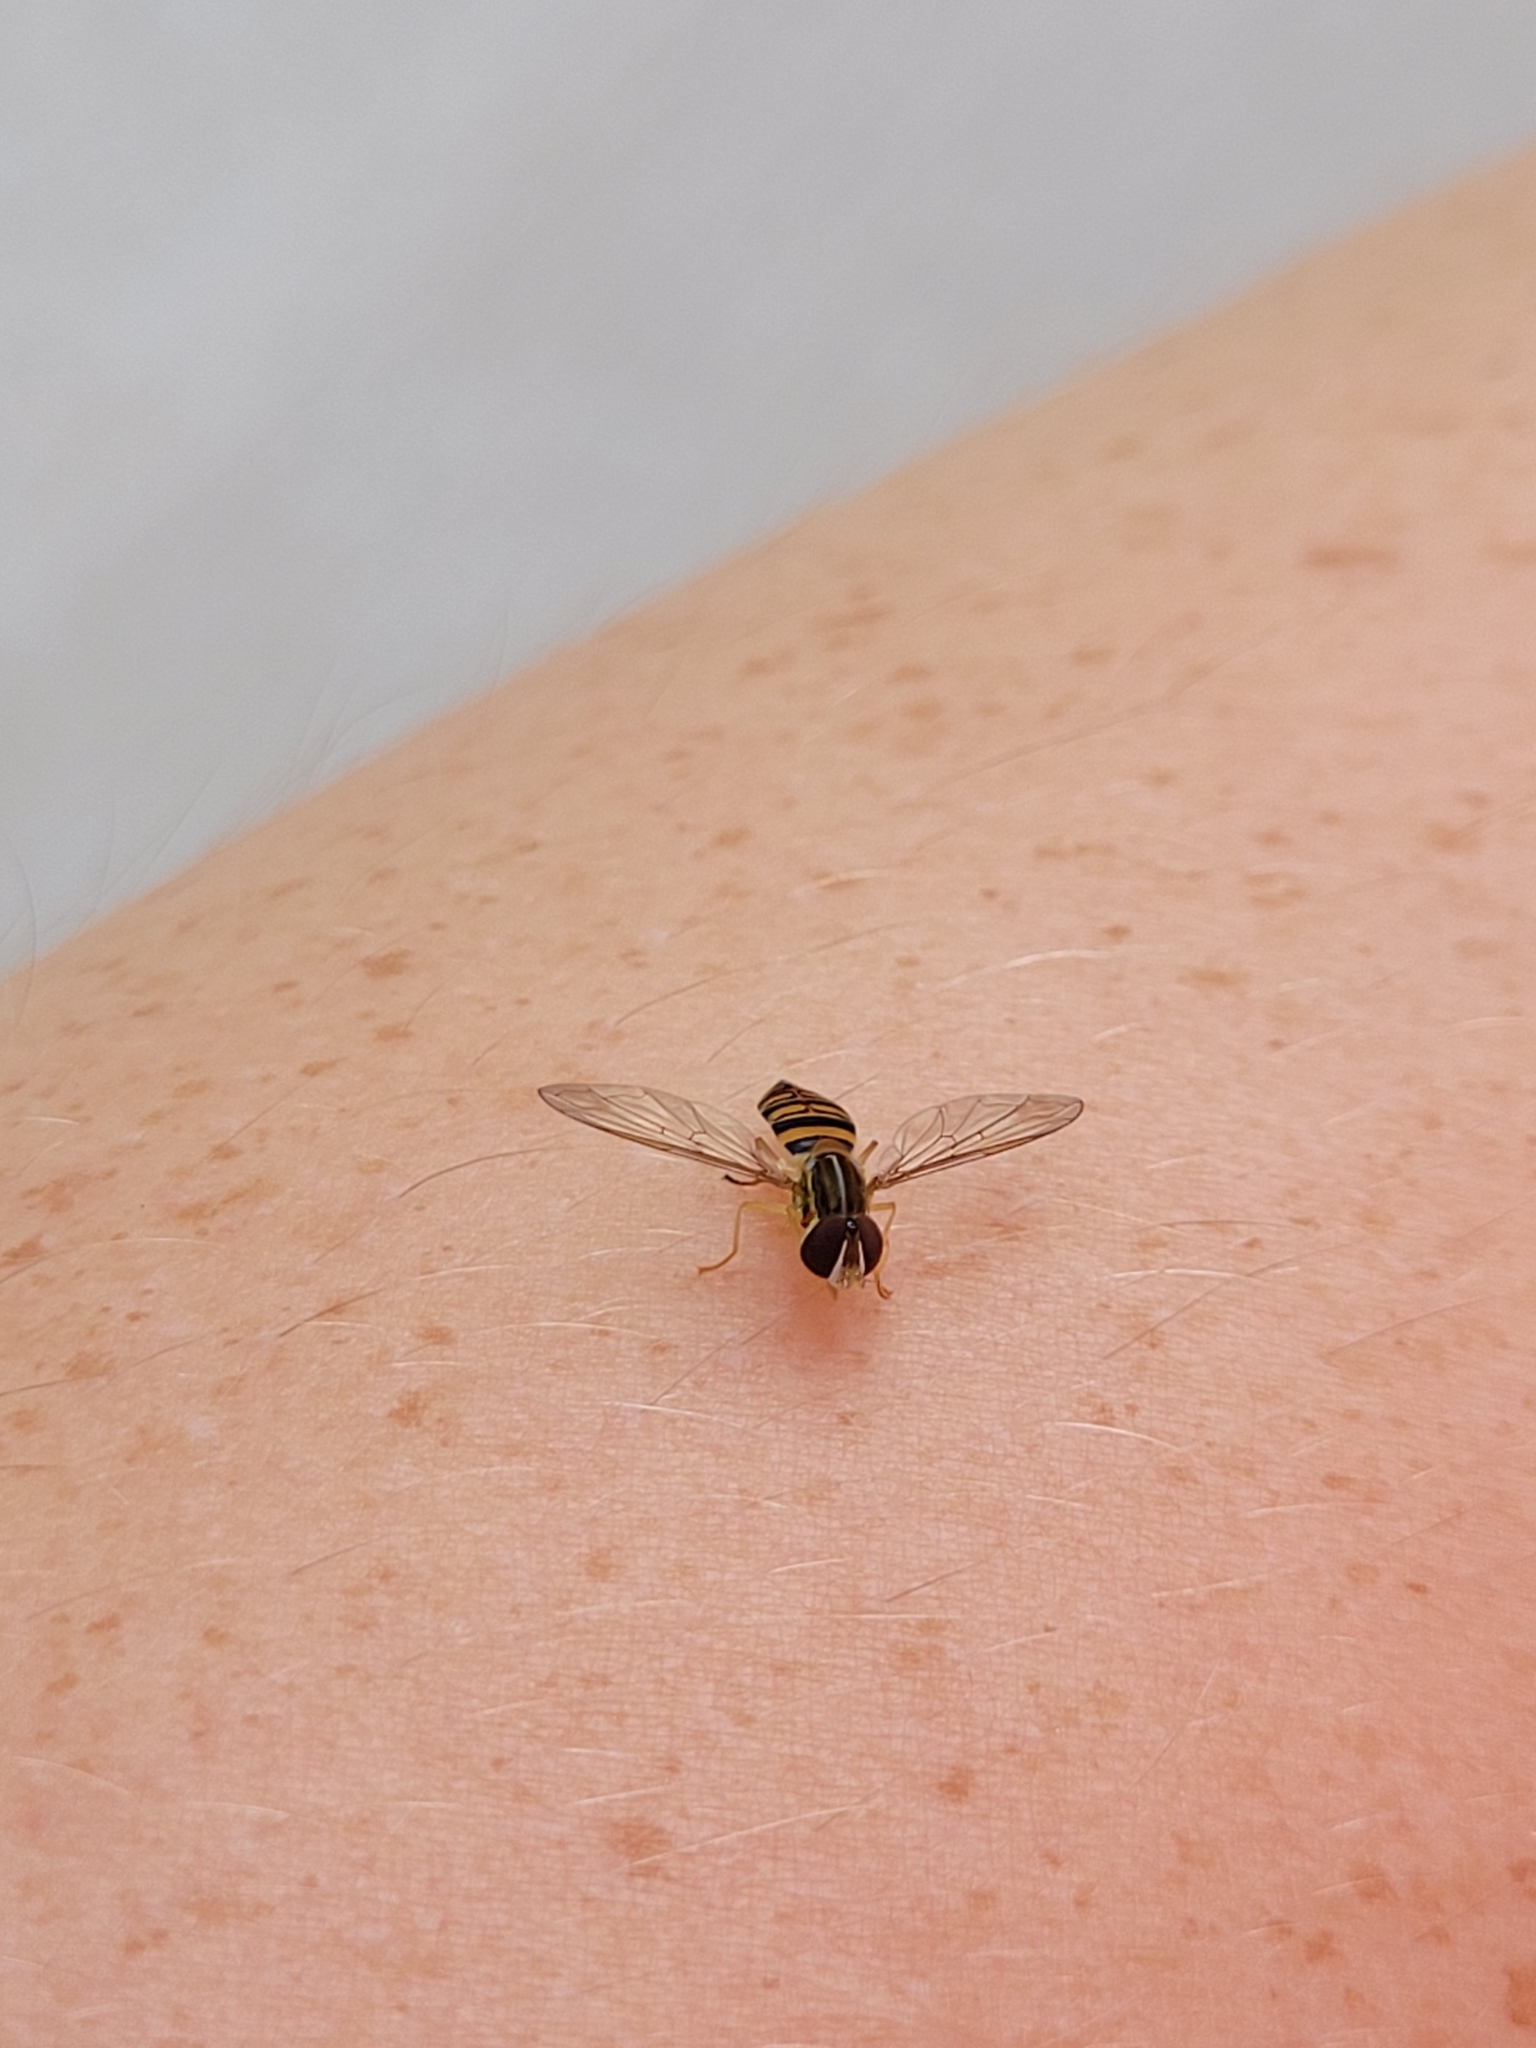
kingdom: Animalia
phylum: Arthropoda
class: Insecta
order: Diptera
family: Syrphidae
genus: Toxomerus
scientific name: Toxomerus politus
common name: Maize calligrapher
